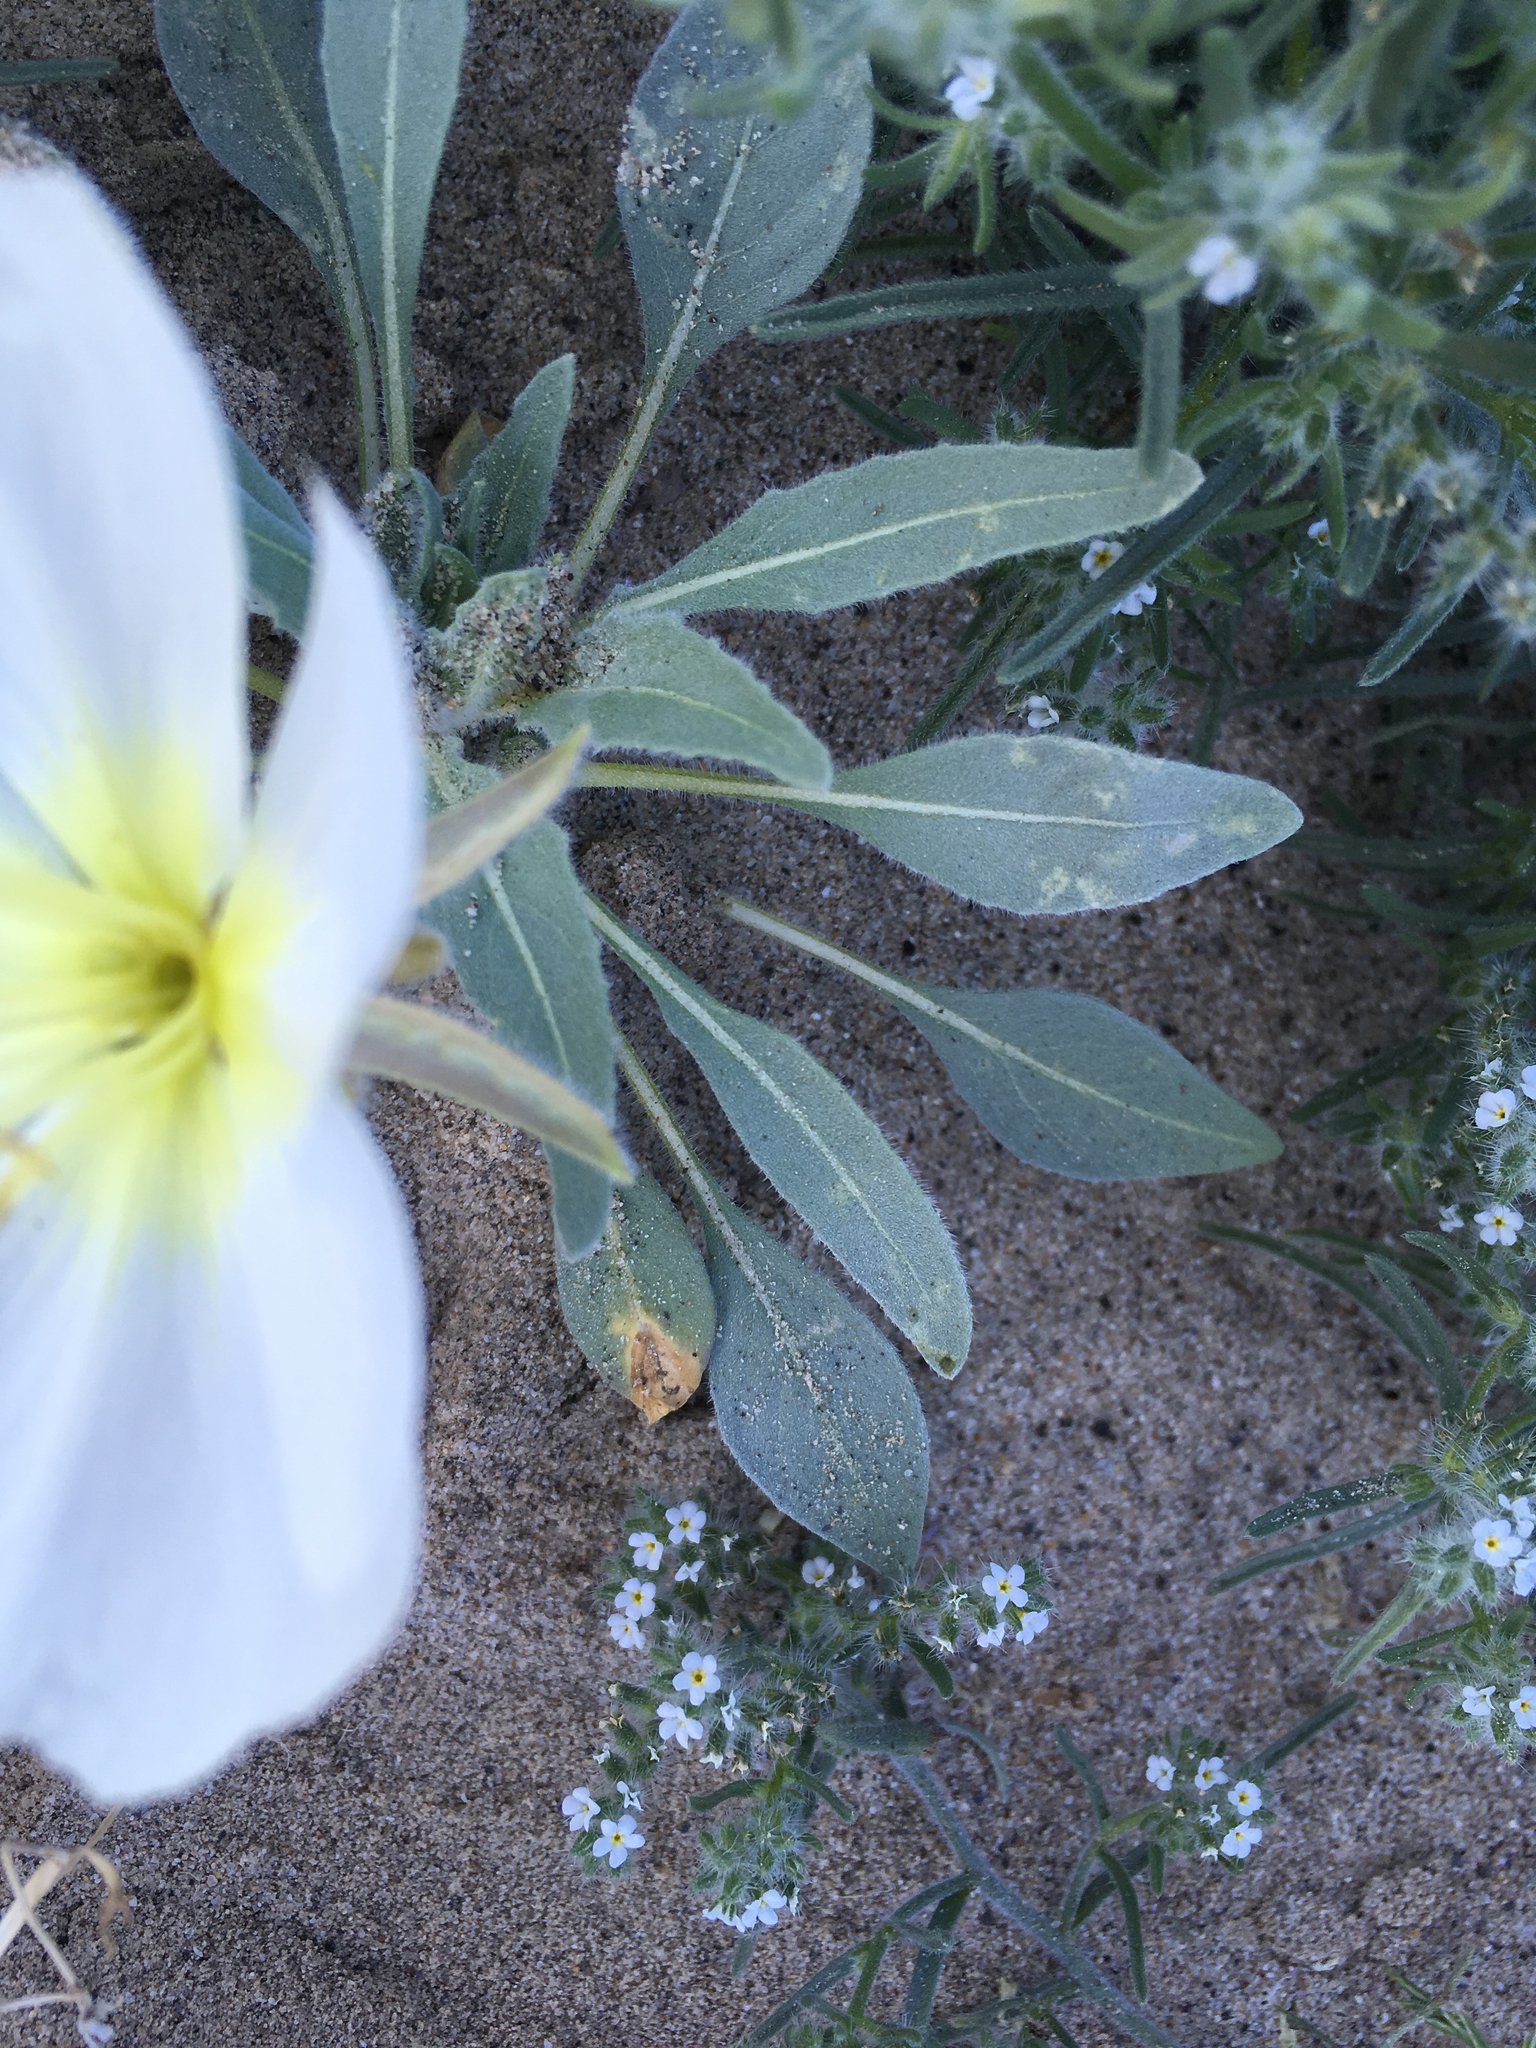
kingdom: Plantae
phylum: Tracheophyta
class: Magnoliopsida
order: Myrtales
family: Onagraceae
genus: Oenothera
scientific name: Oenothera deltoides
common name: Basket evening-primrose
